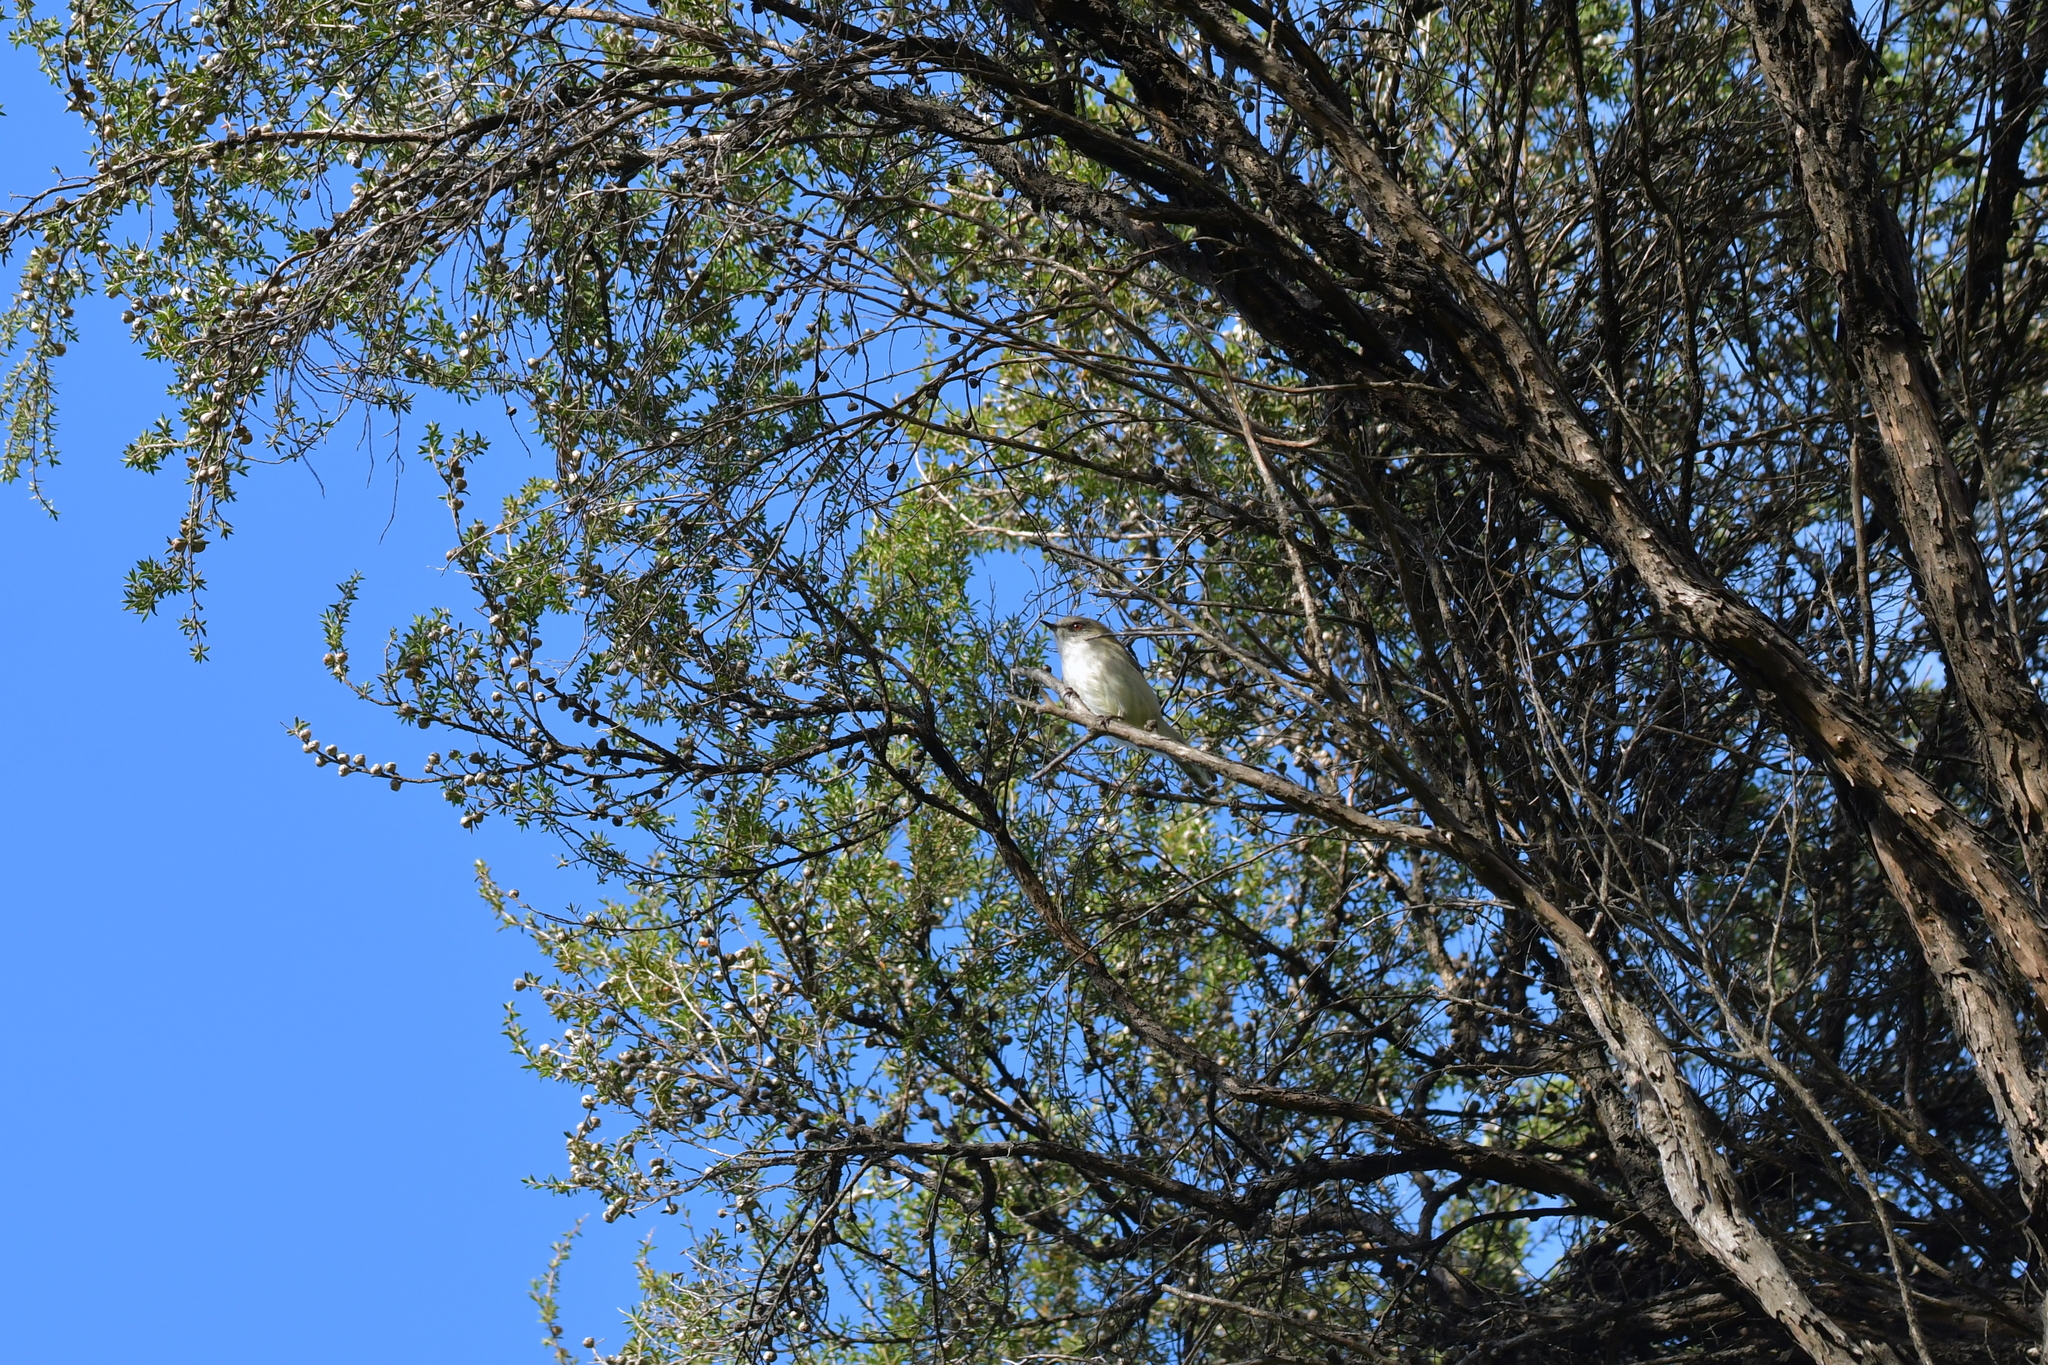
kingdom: Animalia
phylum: Chordata
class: Aves
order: Passeriformes
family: Acanthizidae
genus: Gerygone
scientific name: Gerygone igata
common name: Grey gerygone
